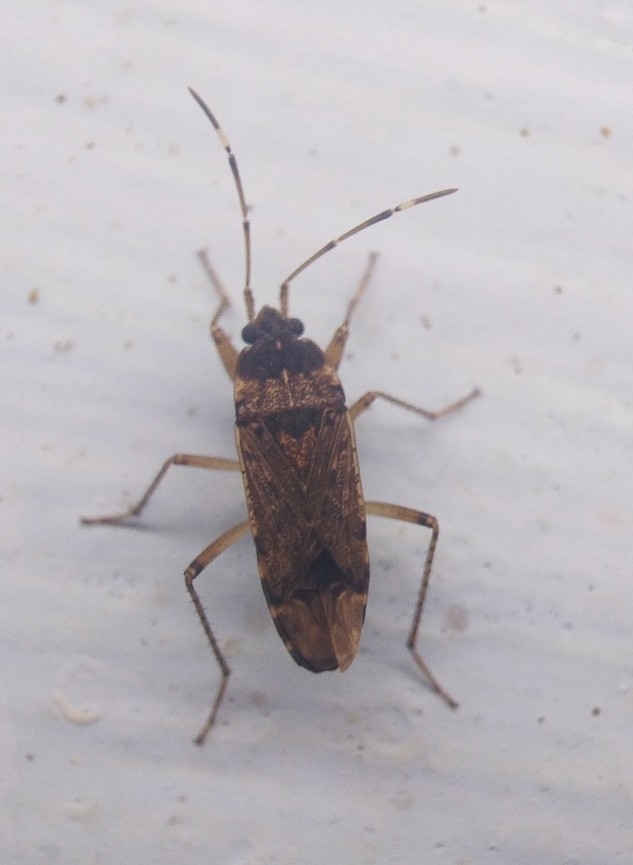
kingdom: Animalia
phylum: Arthropoda
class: Insecta
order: Hemiptera
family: Rhyparochromidae
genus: Elasmolomus
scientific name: Elasmolomus pallens
